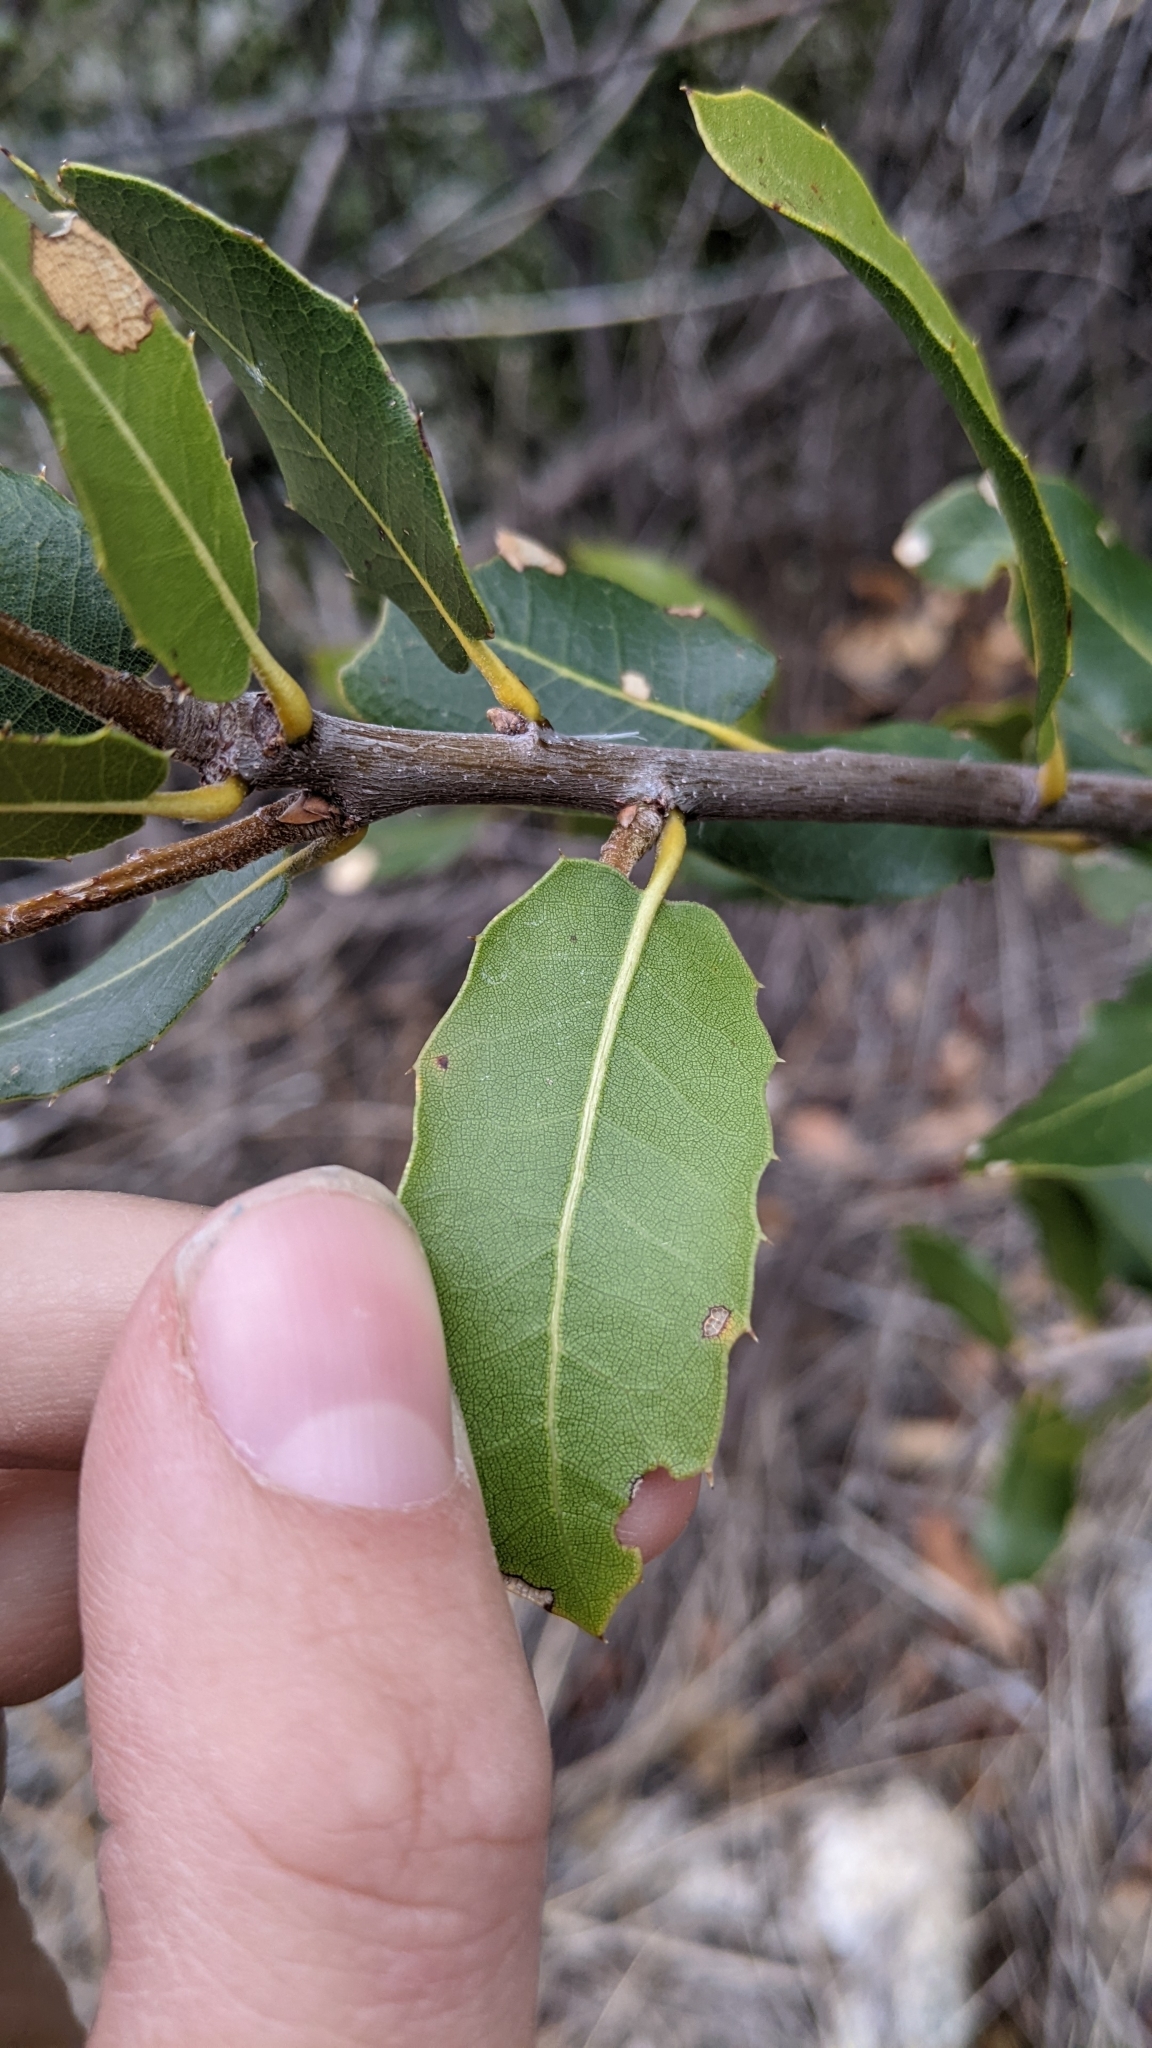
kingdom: Plantae
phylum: Tracheophyta
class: Magnoliopsida
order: Fagales
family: Fagaceae
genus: Quercus
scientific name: Quercus wislizeni
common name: Interior live oak
